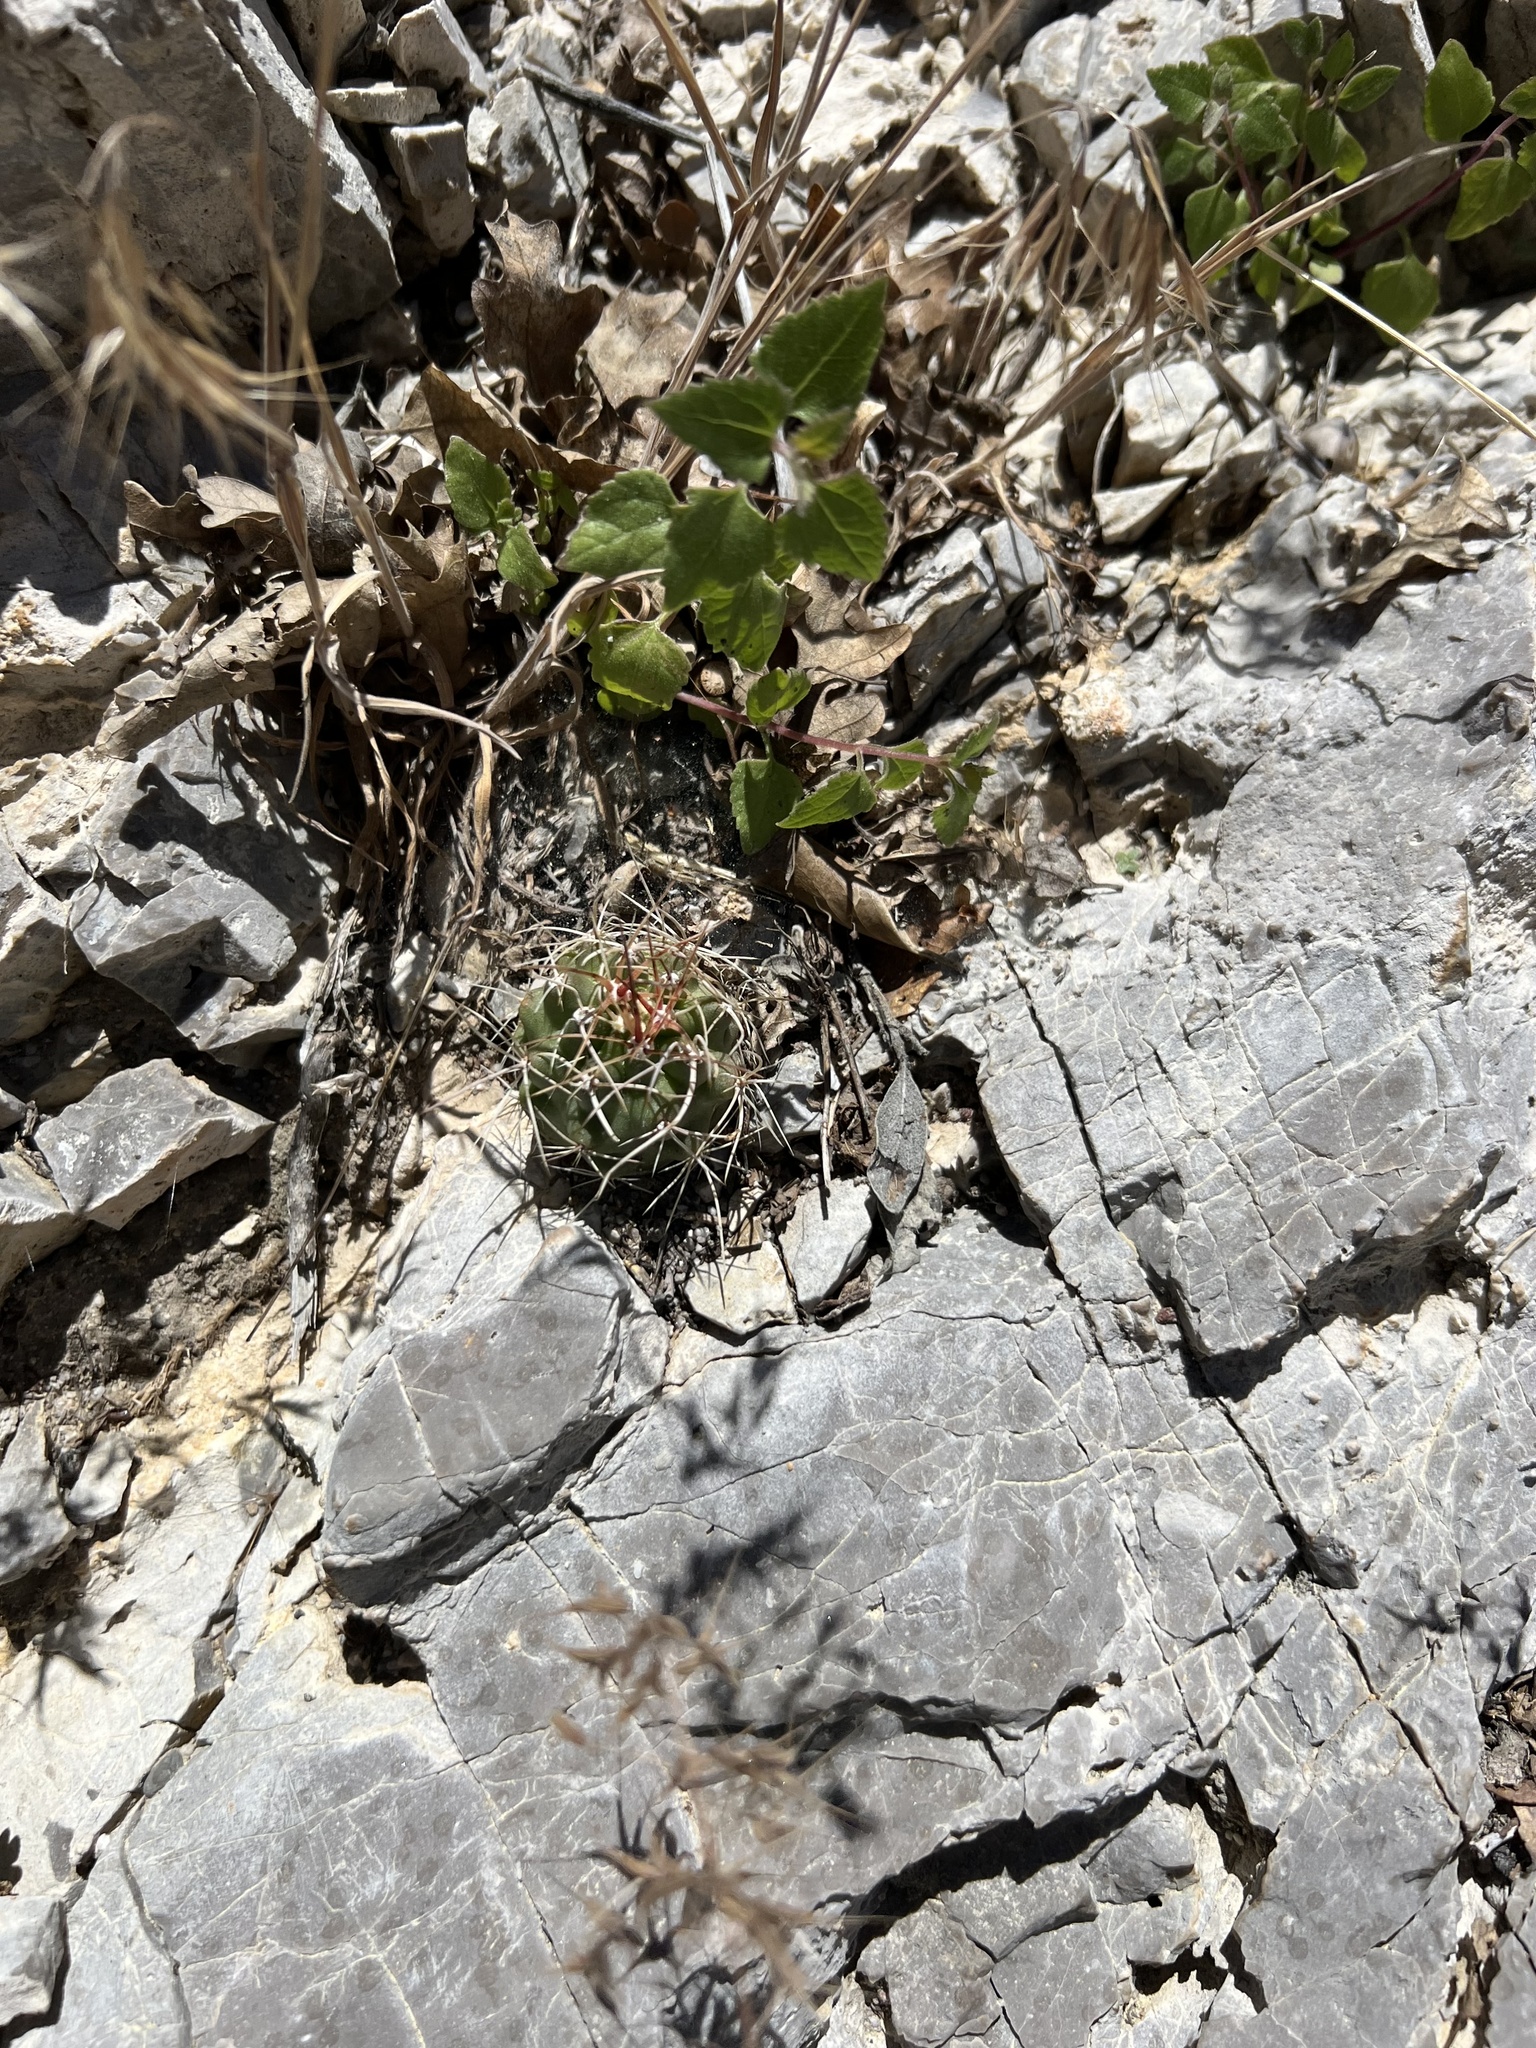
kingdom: Plantae
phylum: Tracheophyta
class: Magnoliopsida
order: Caryophyllales
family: Cactaceae
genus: Echinocereus
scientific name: Echinocereus triglochidiatus
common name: Claretcup hedgehog
